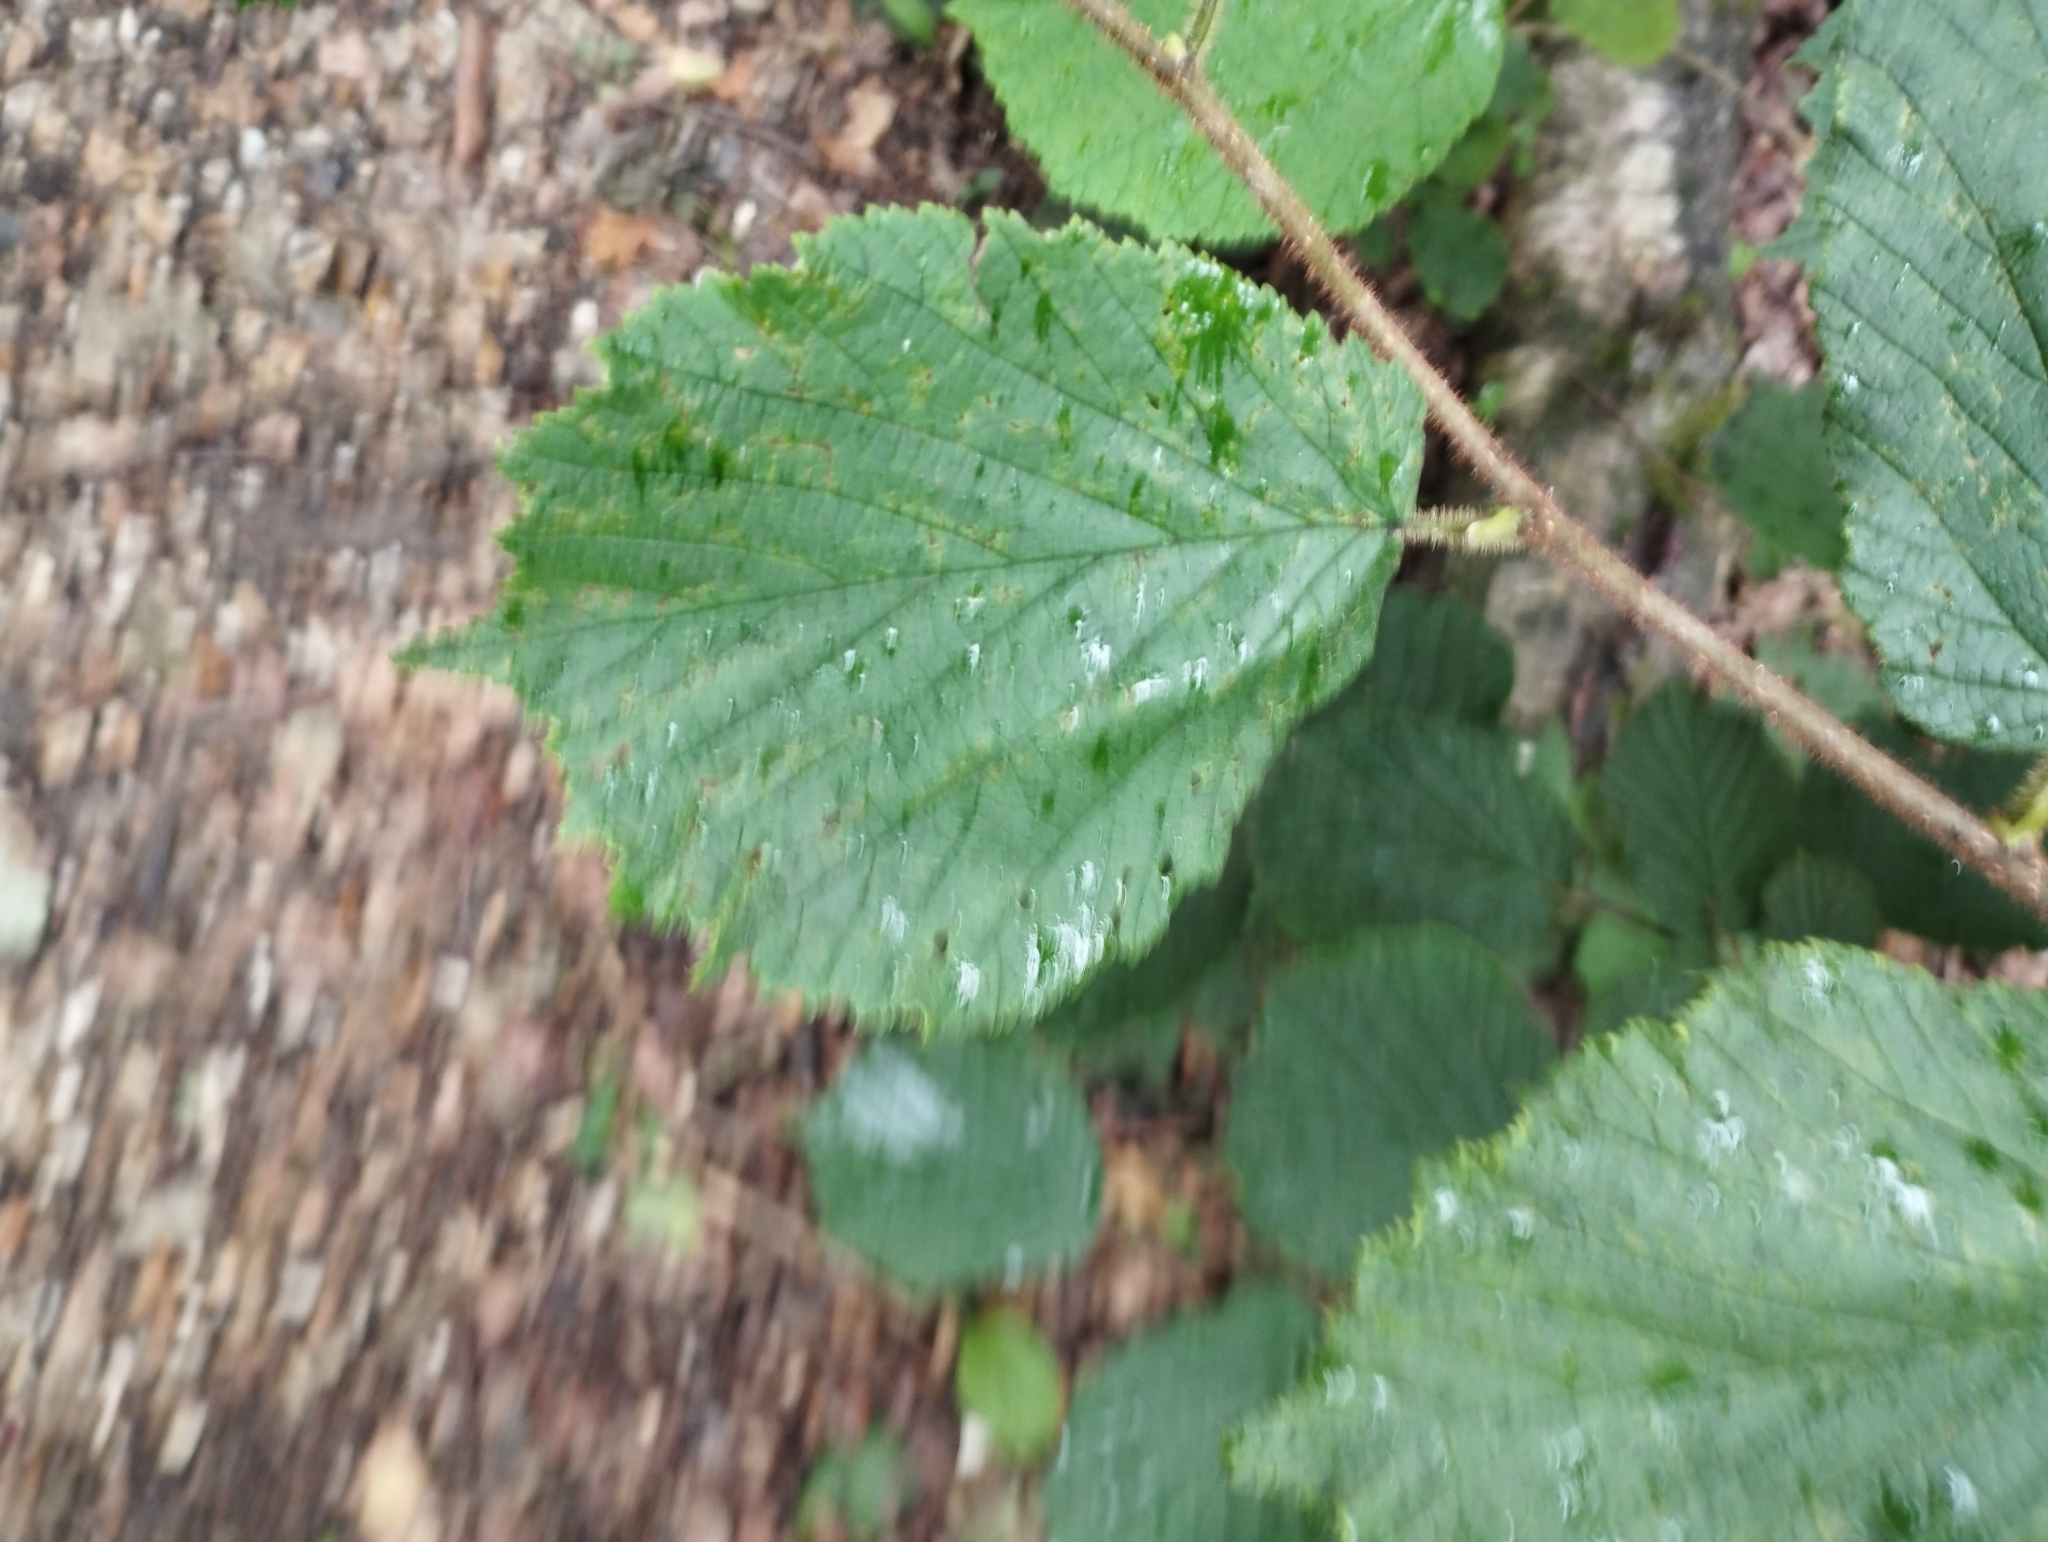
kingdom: Plantae
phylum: Tracheophyta
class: Magnoliopsida
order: Fagales
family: Betulaceae
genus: Corylus
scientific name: Corylus avellana
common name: European hazel
